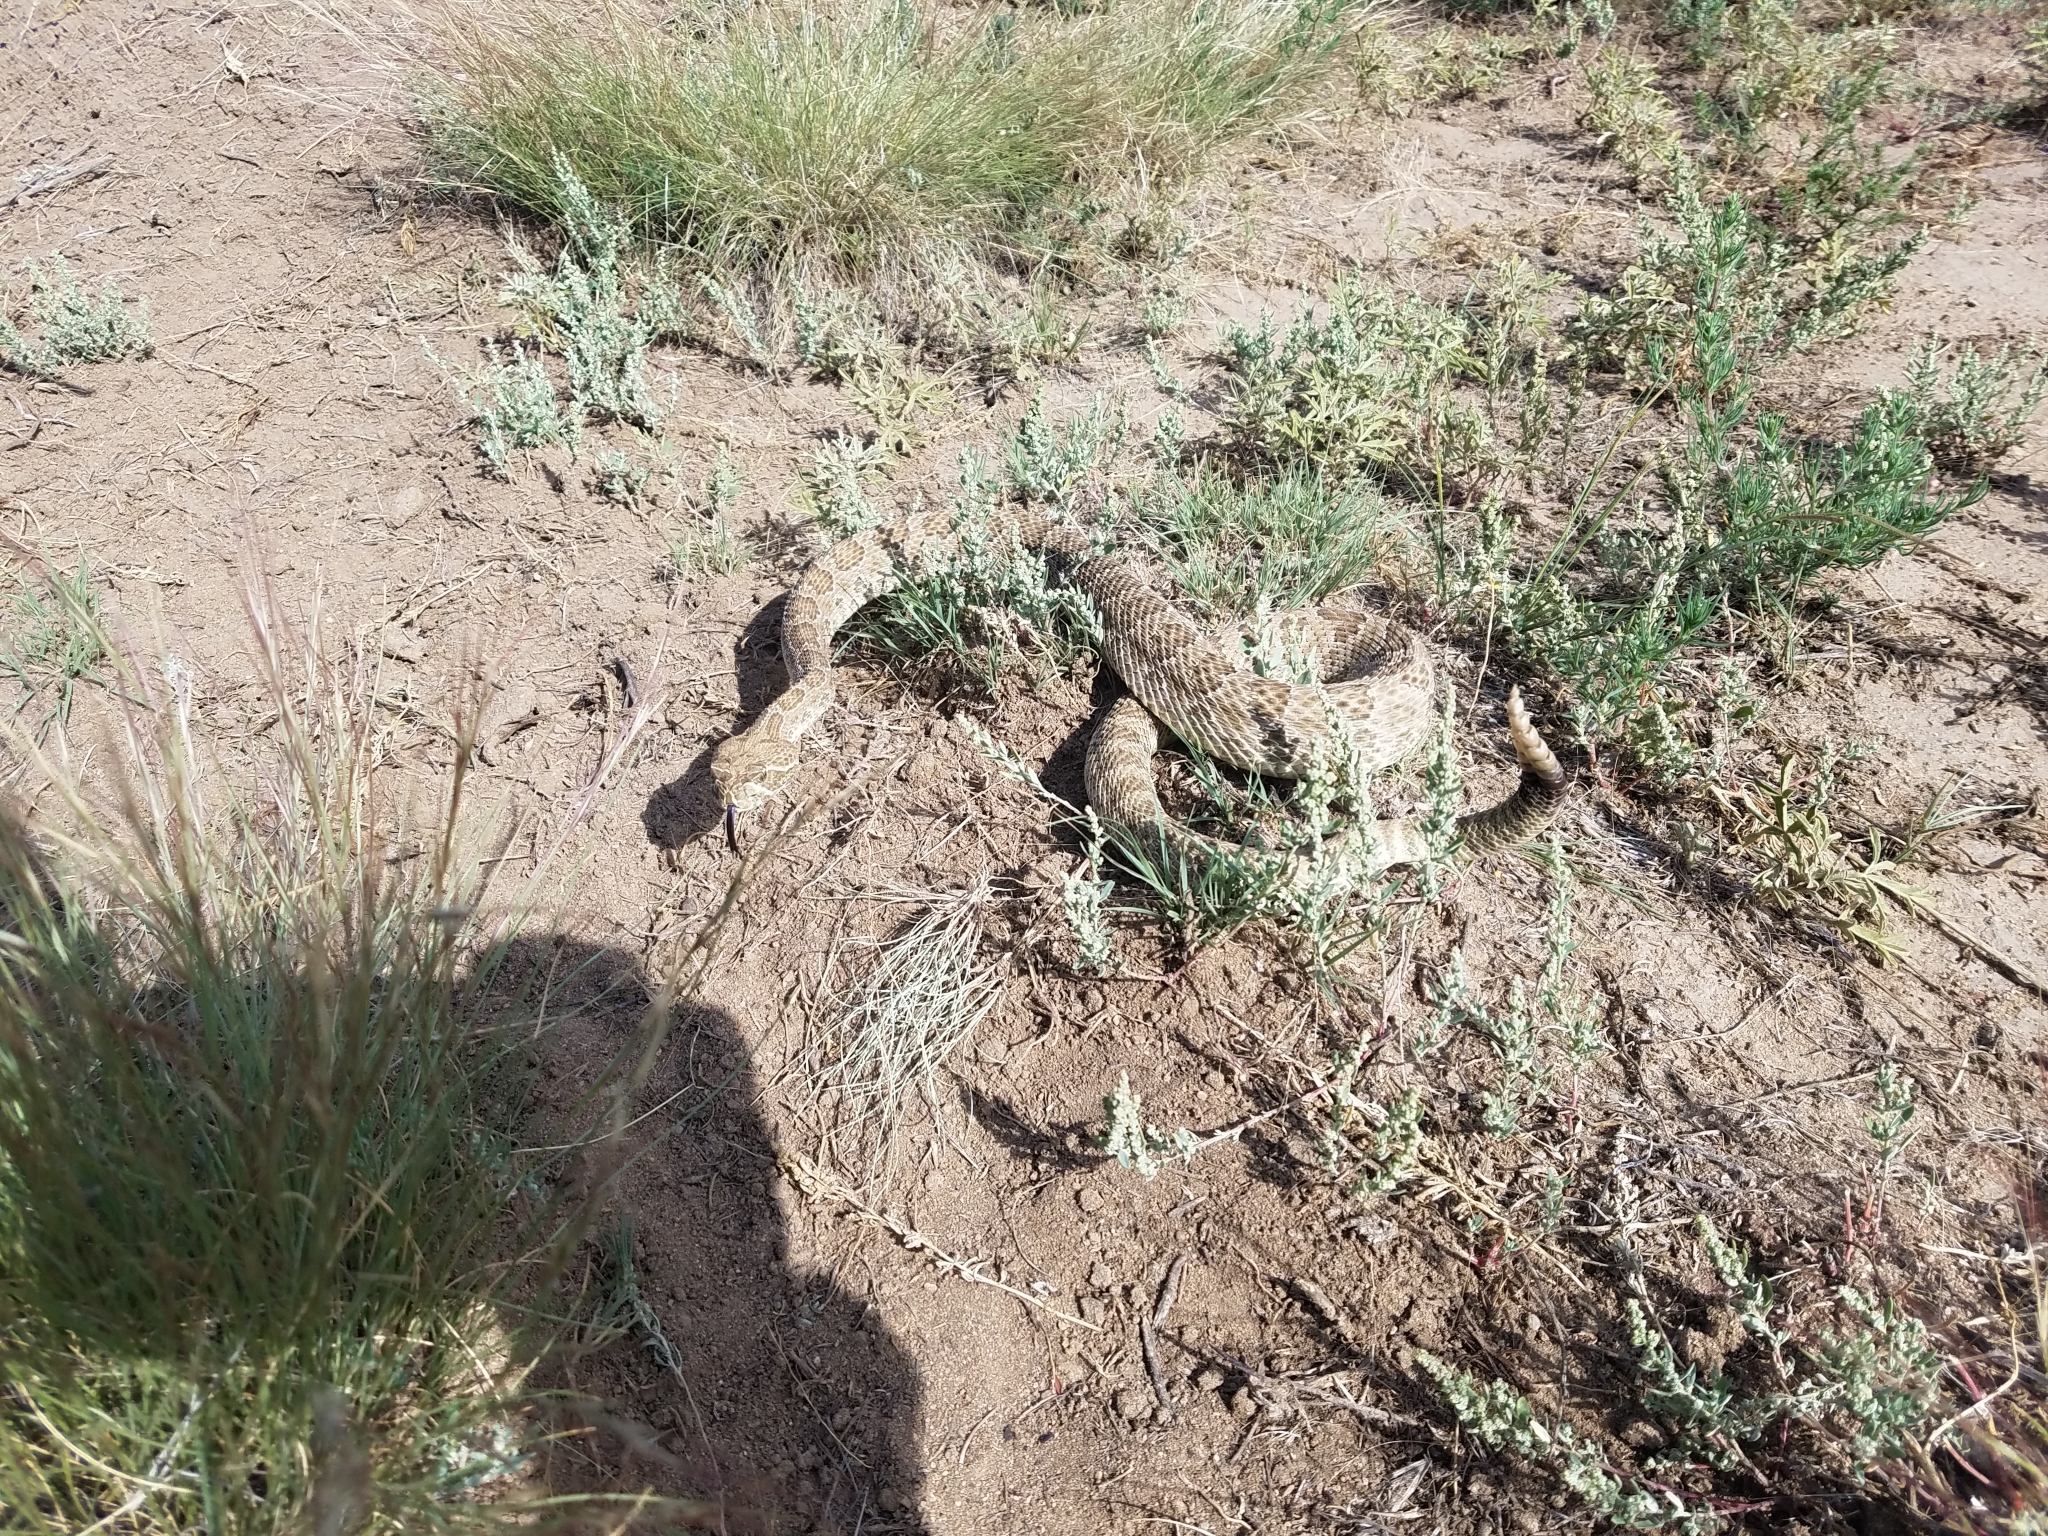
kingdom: Animalia
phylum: Chordata
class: Squamata
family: Viperidae
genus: Crotalus
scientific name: Crotalus viridis
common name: Prairie rattlesnake
